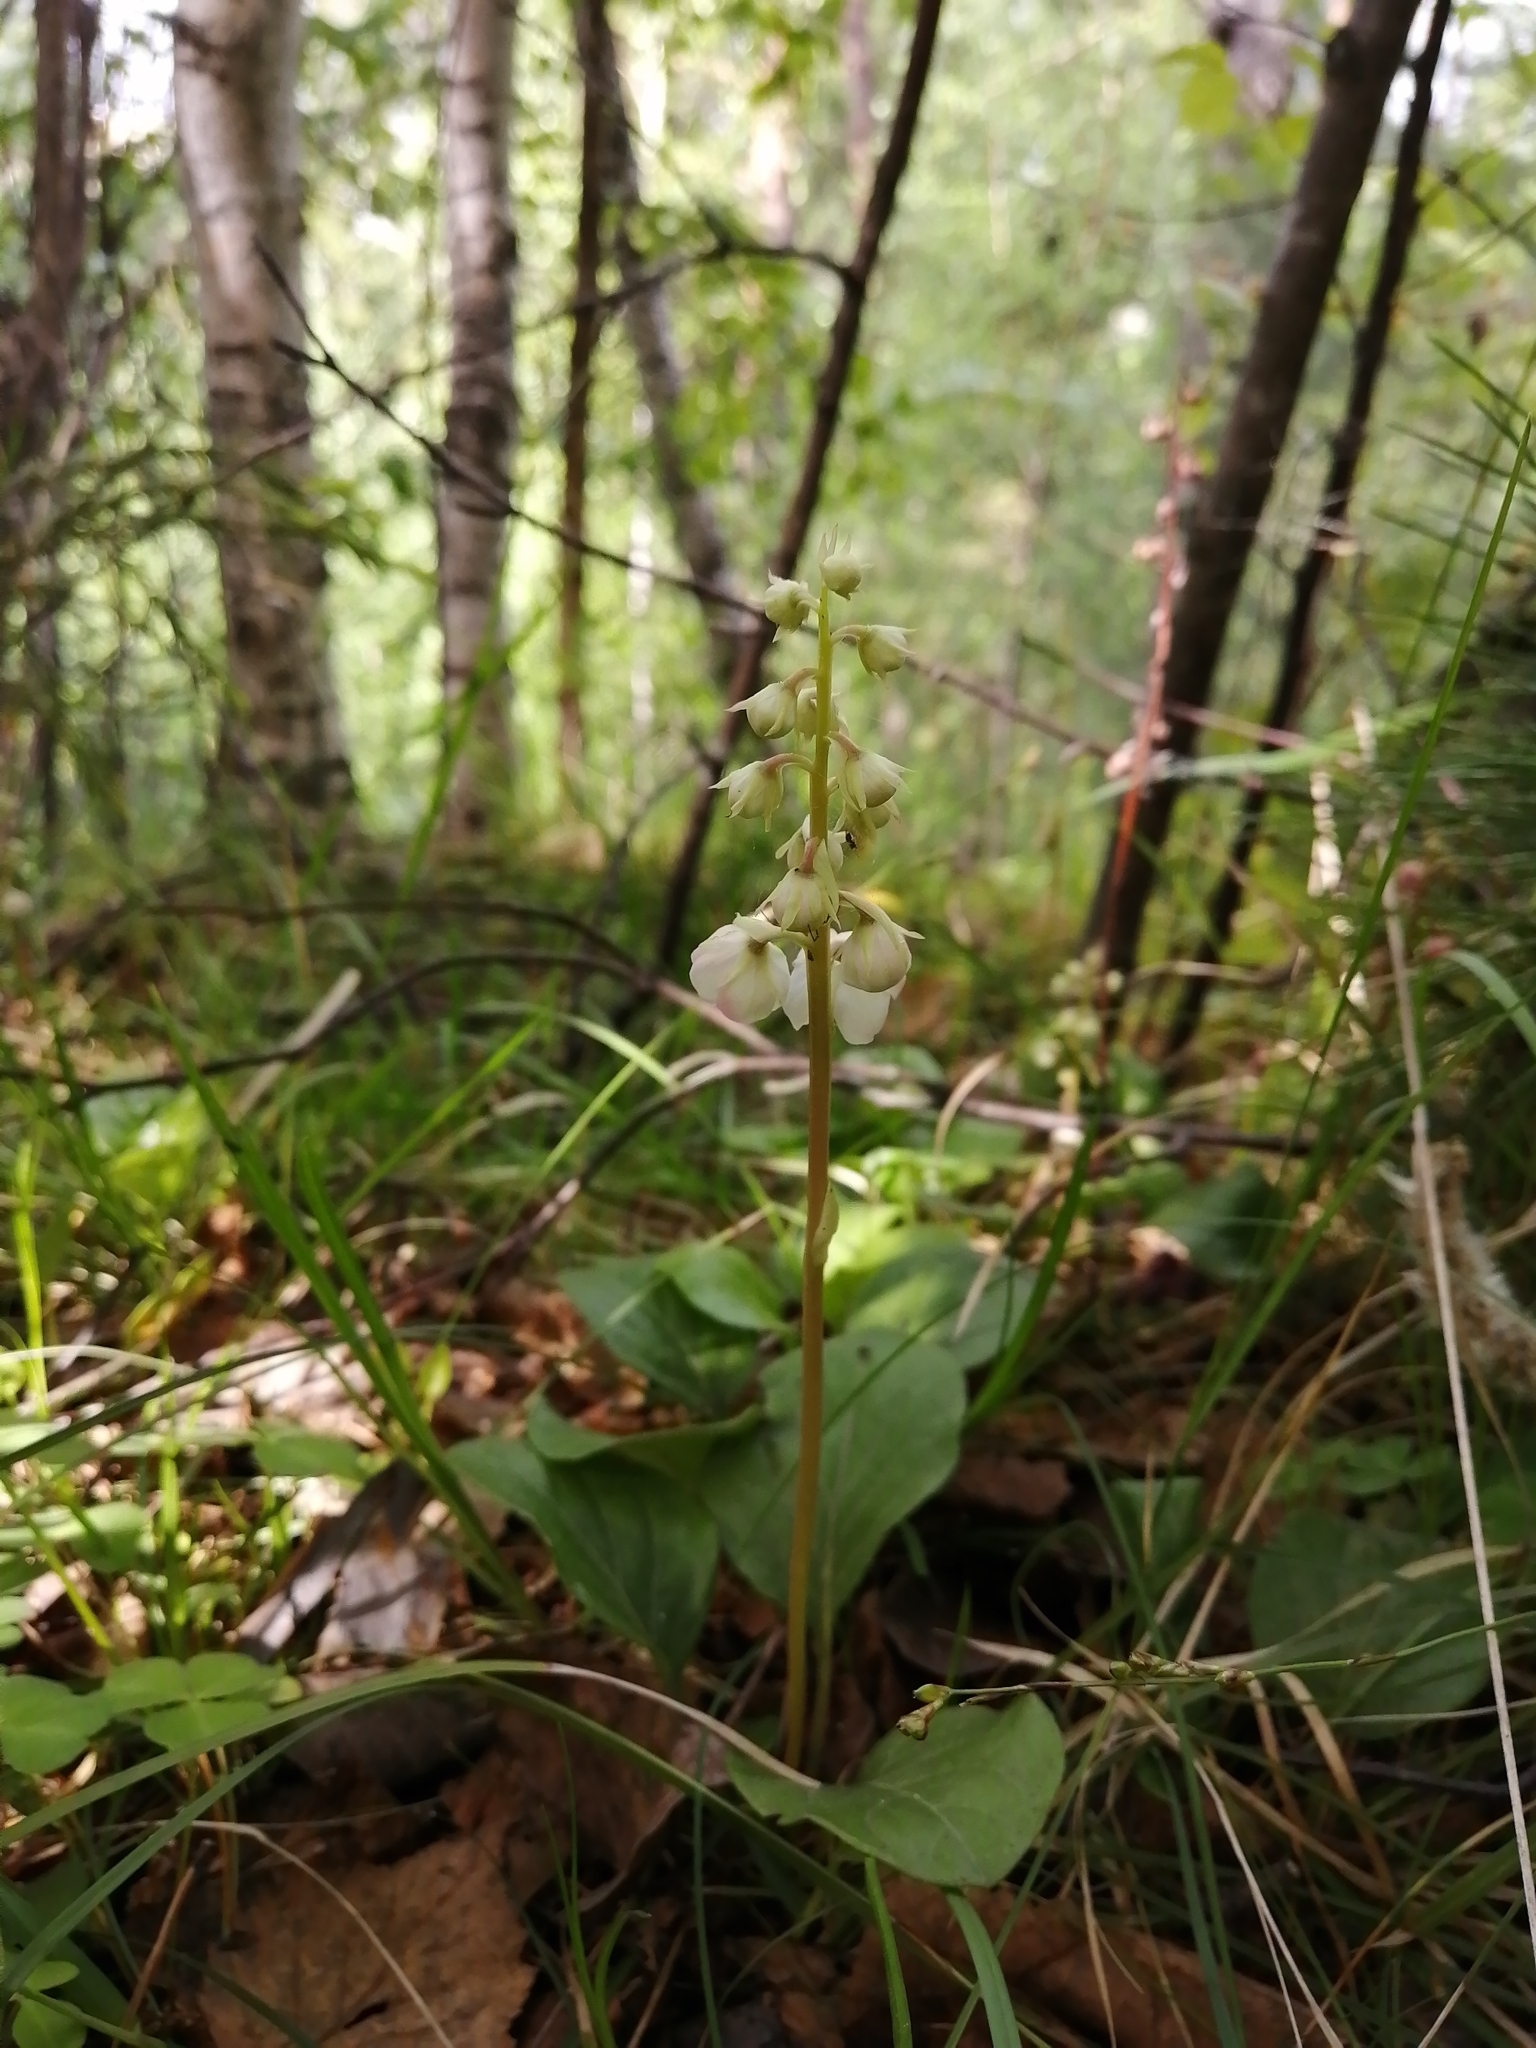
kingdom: Plantae
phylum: Tracheophyta
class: Magnoliopsida
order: Ericales
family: Ericaceae
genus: Pyrola
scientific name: Pyrola rotundifolia
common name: Round-leaved wintergreen
